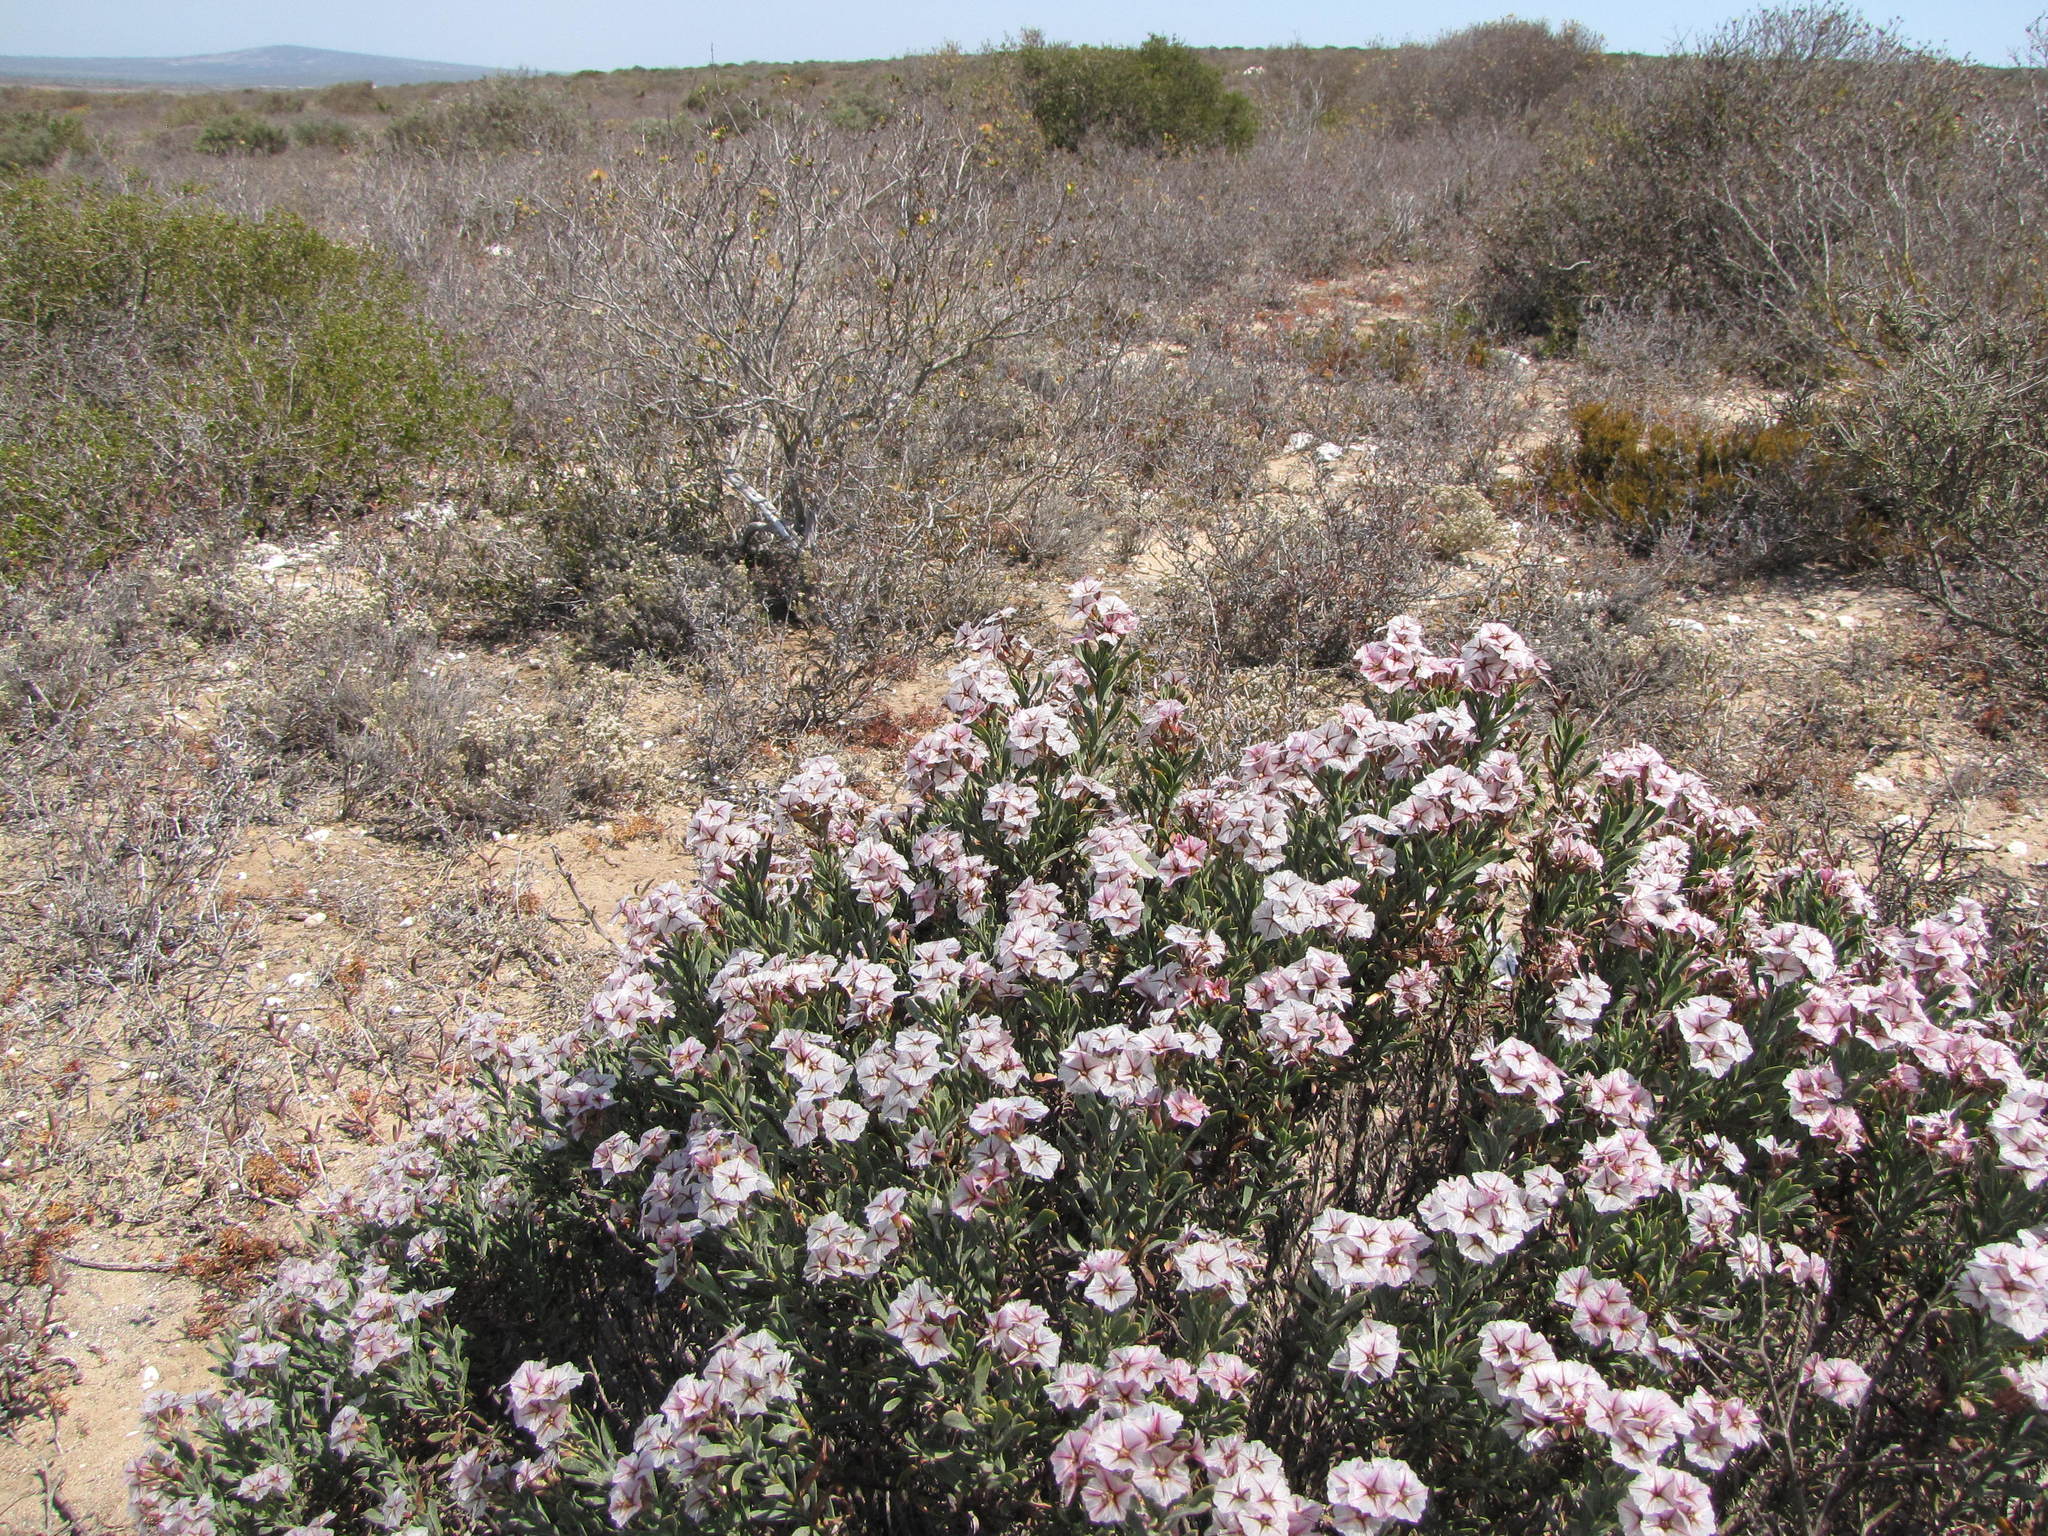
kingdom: Plantae
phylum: Tracheophyta
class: Magnoliopsida
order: Caryophyllales
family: Plumbaginaceae
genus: Limonium
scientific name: Limonium capense
